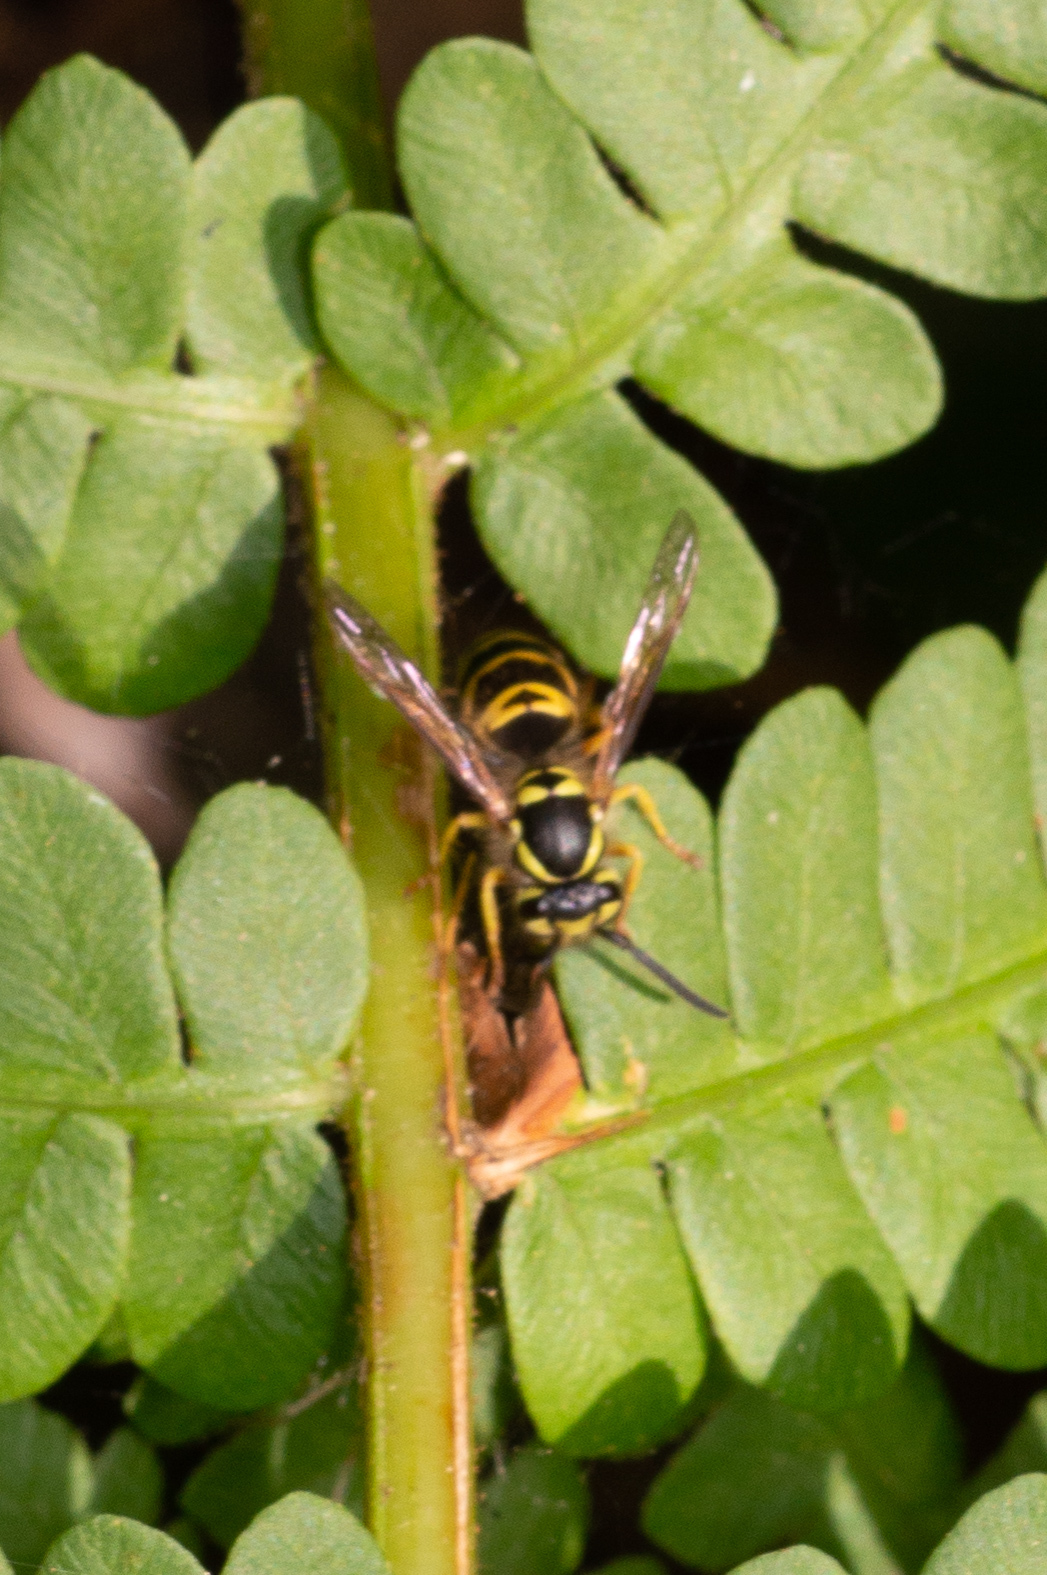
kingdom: Animalia
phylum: Arthropoda
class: Insecta
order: Hymenoptera
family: Vespidae
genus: Vespula
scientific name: Vespula maculifrons
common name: Eastern yellowjacket
